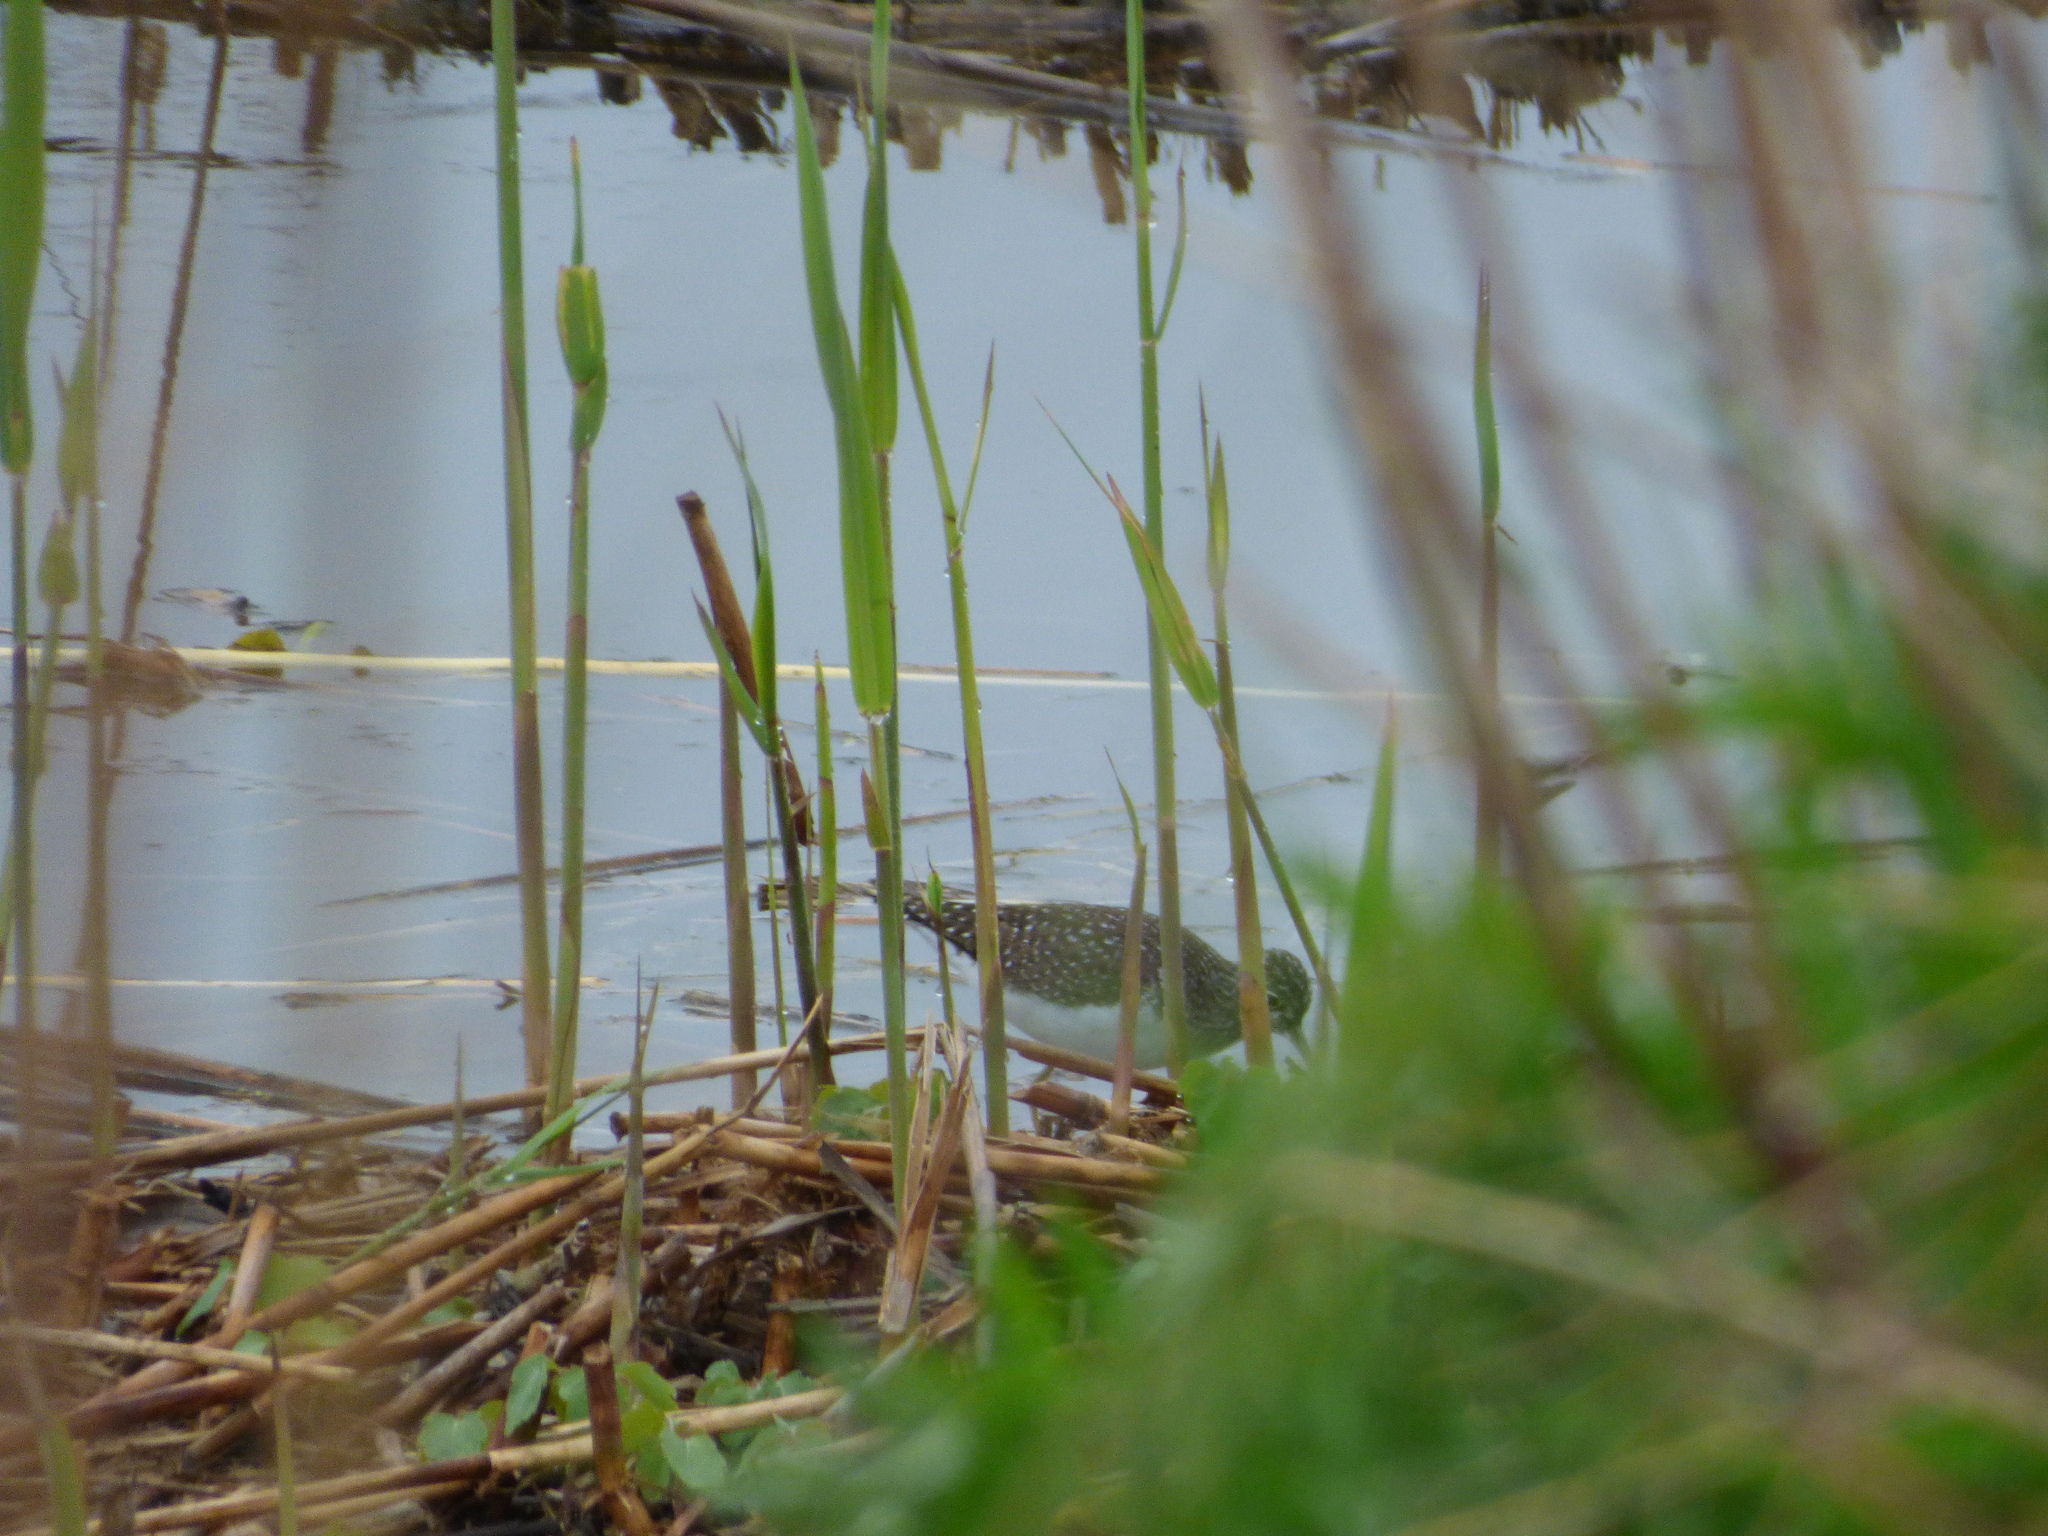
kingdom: Animalia
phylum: Chordata
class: Aves
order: Charadriiformes
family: Scolopacidae
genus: Tringa
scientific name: Tringa solitaria
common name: Solitary sandpiper
